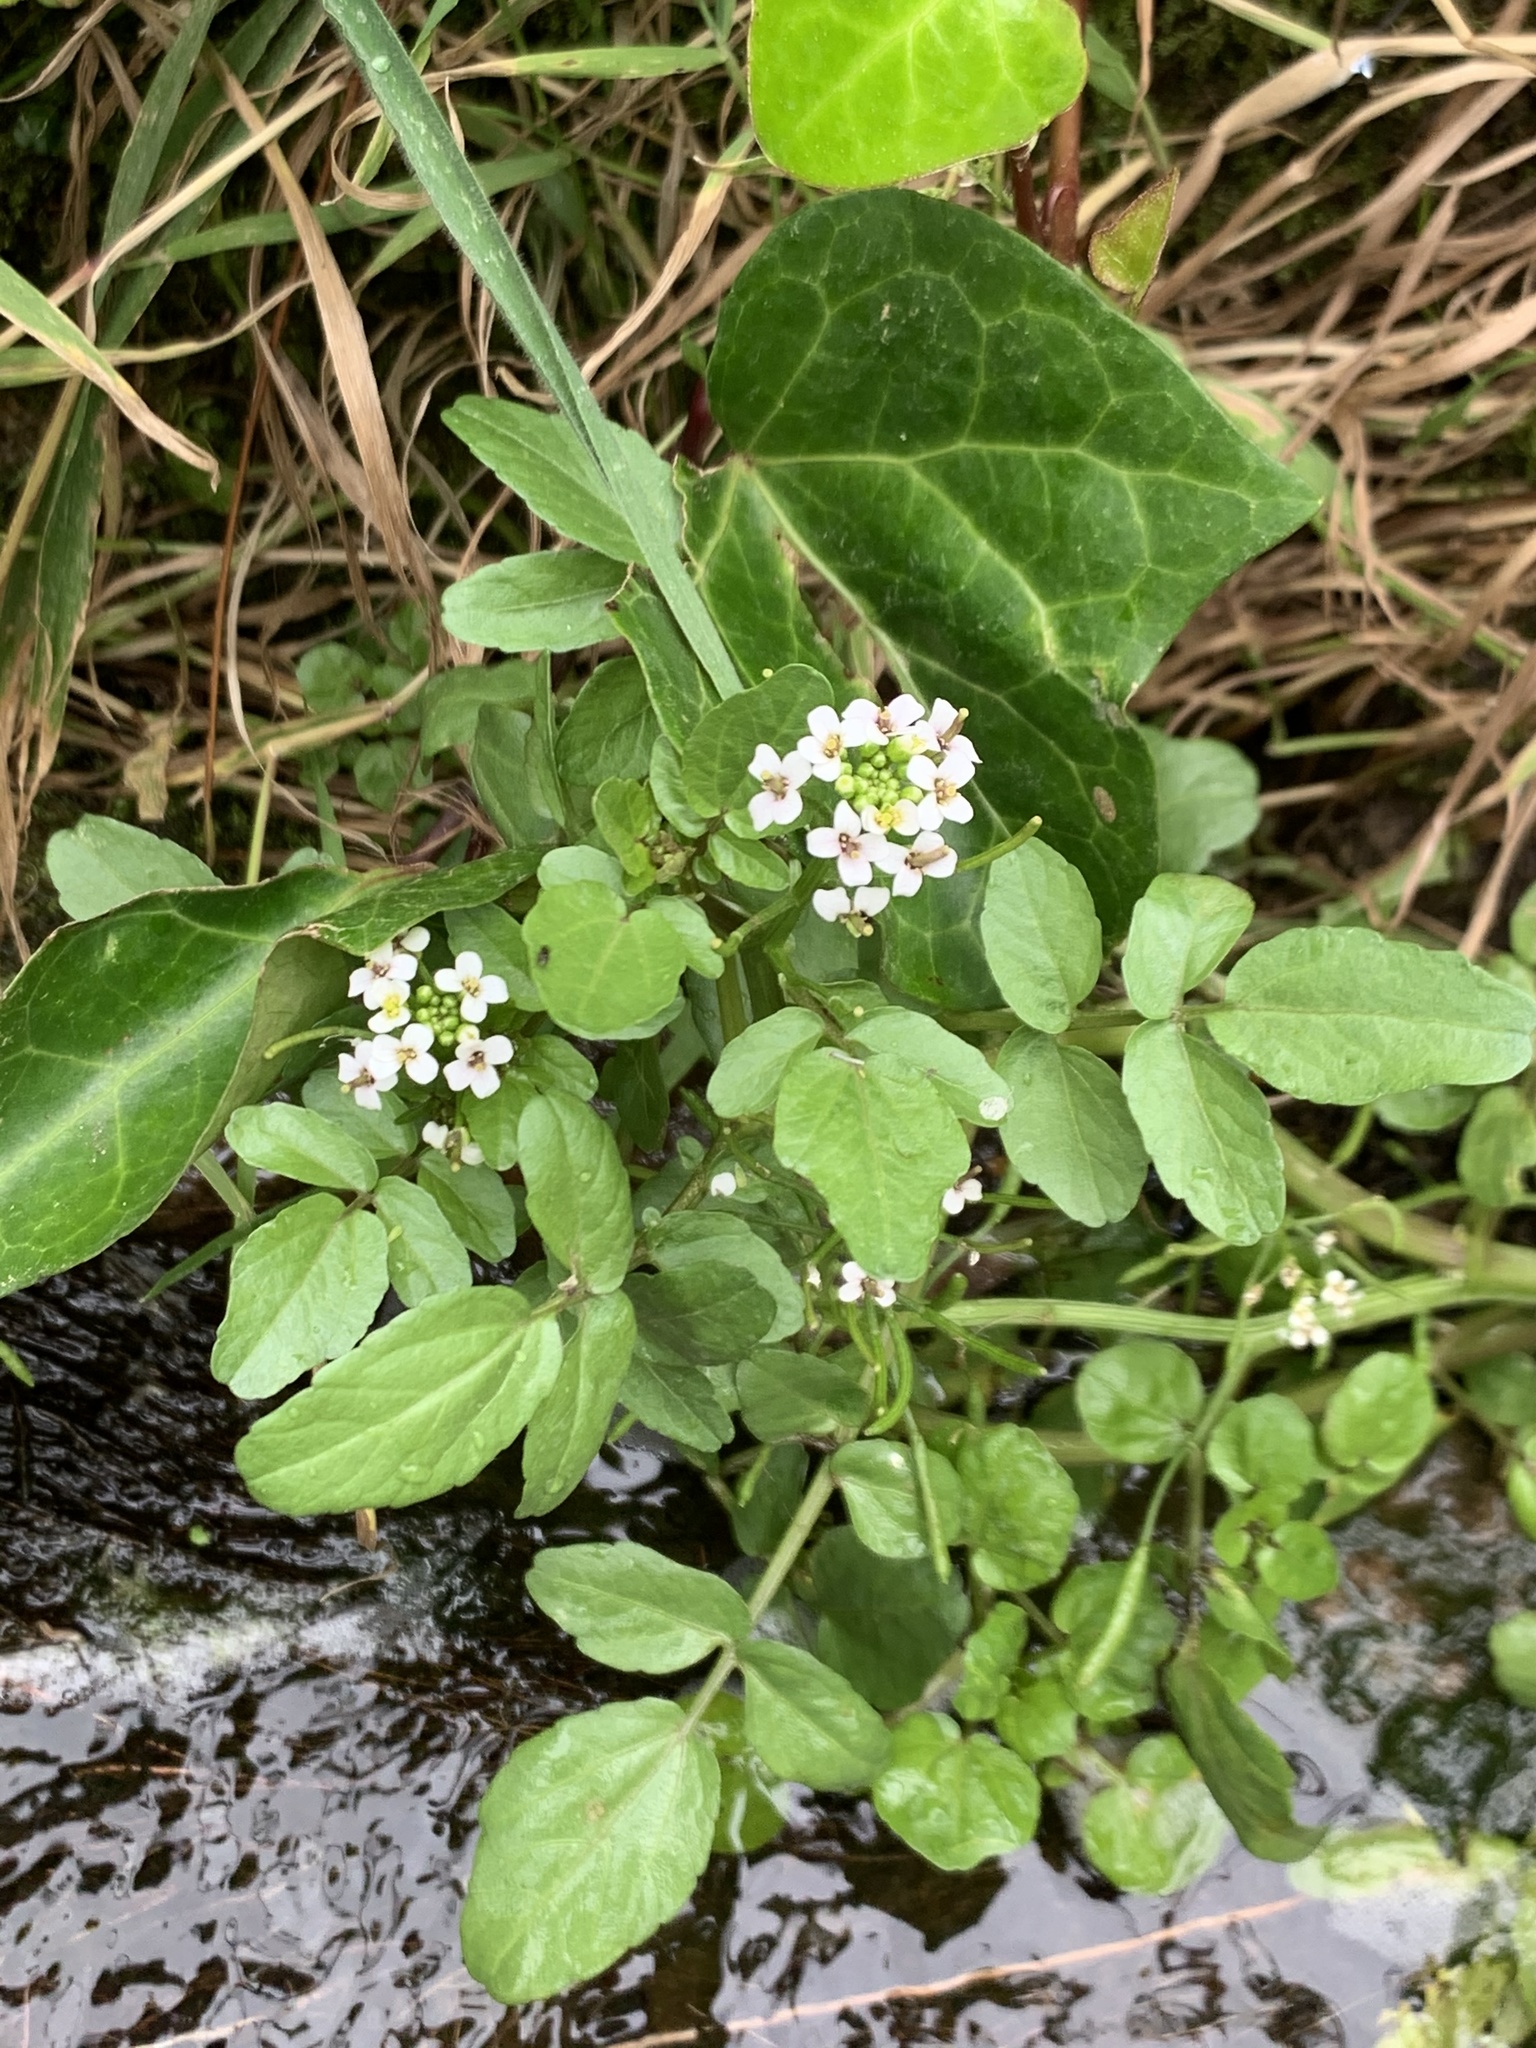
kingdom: Plantae
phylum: Tracheophyta
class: Magnoliopsida
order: Brassicales
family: Brassicaceae
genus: Nasturtium
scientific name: Nasturtium officinale
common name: Watercress
